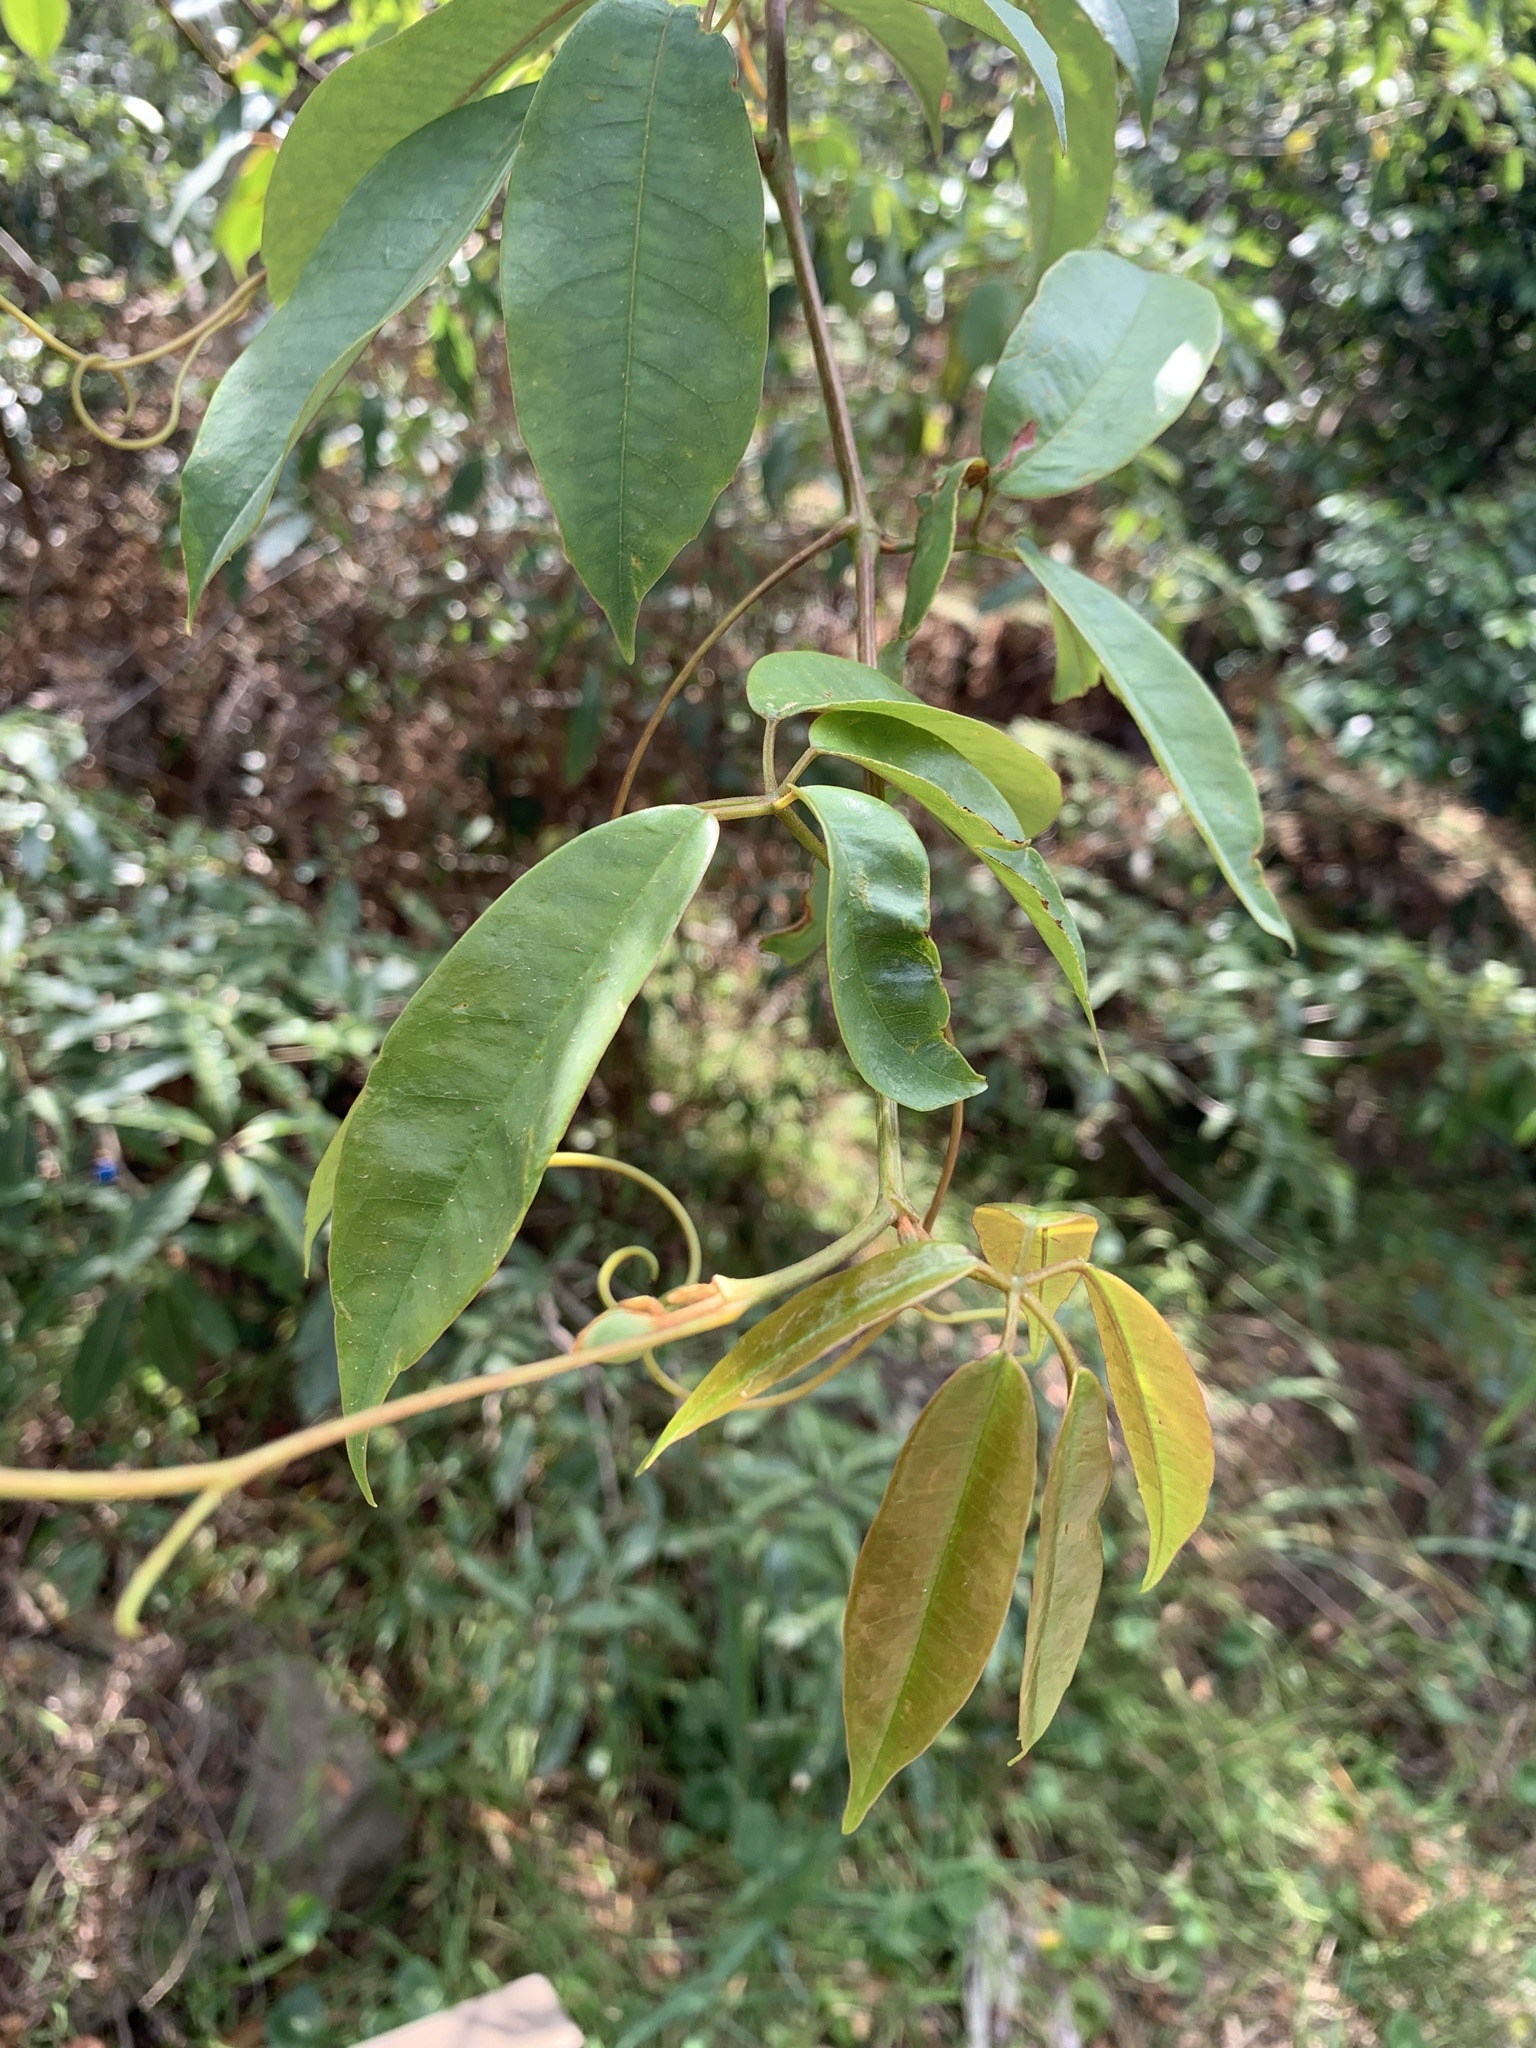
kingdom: Plantae
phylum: Tracheophyta
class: Magnoliopsida
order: Vitales
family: Vitaceae
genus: Nothocissus
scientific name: Nothocissus hypoglauca
